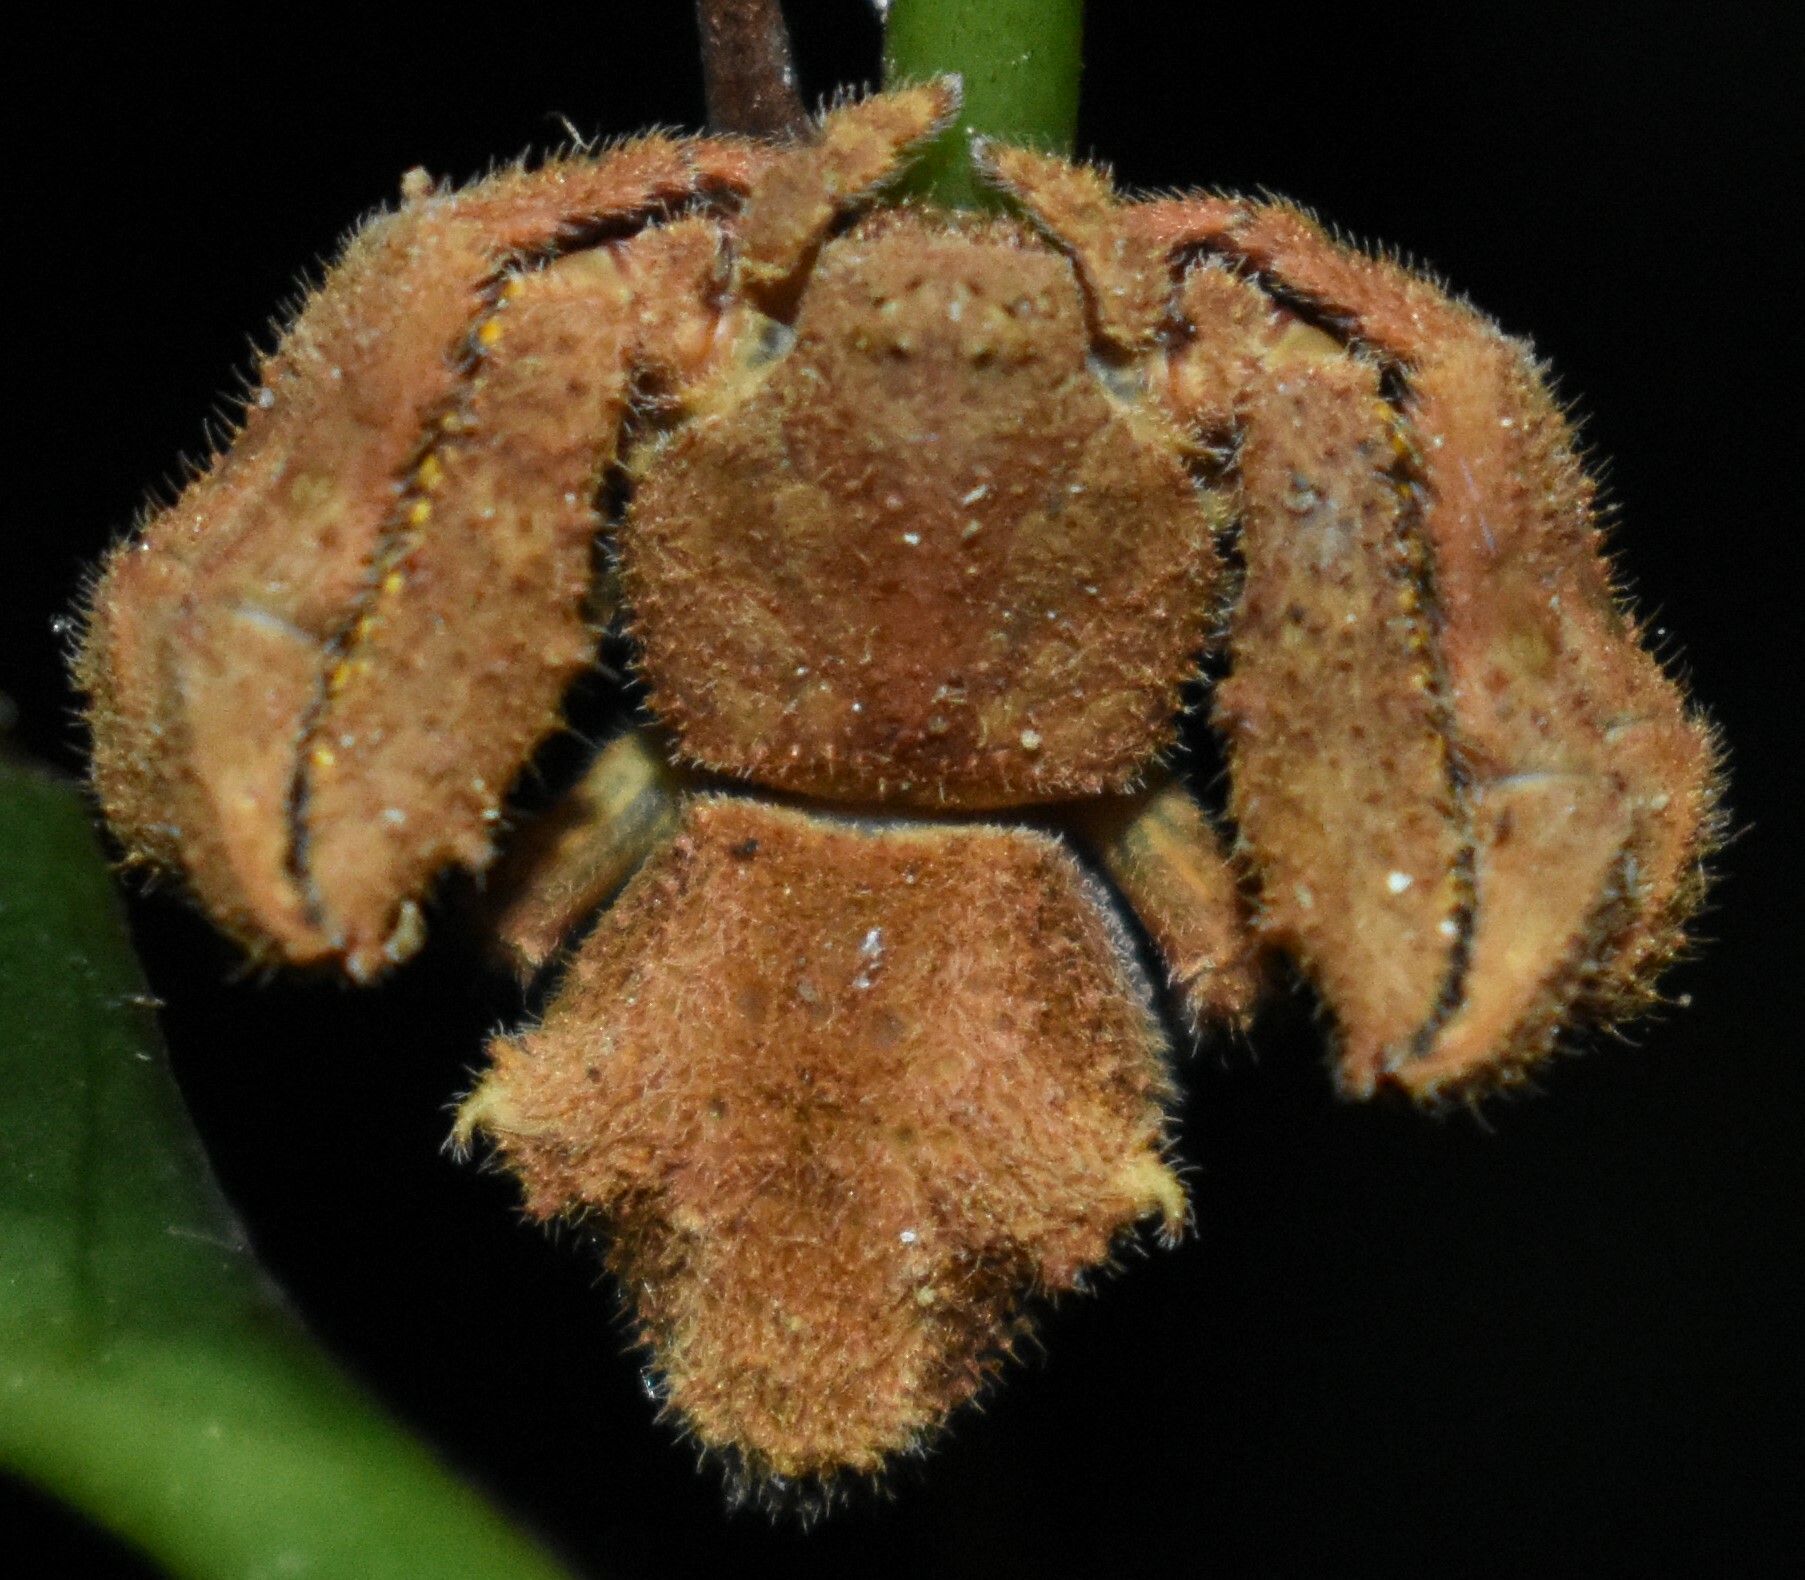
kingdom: Animalia
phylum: Arthropoda
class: Arachnida
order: Araneae
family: Thomisidae
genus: Epicadus
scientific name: Epicadus tuberculatus
